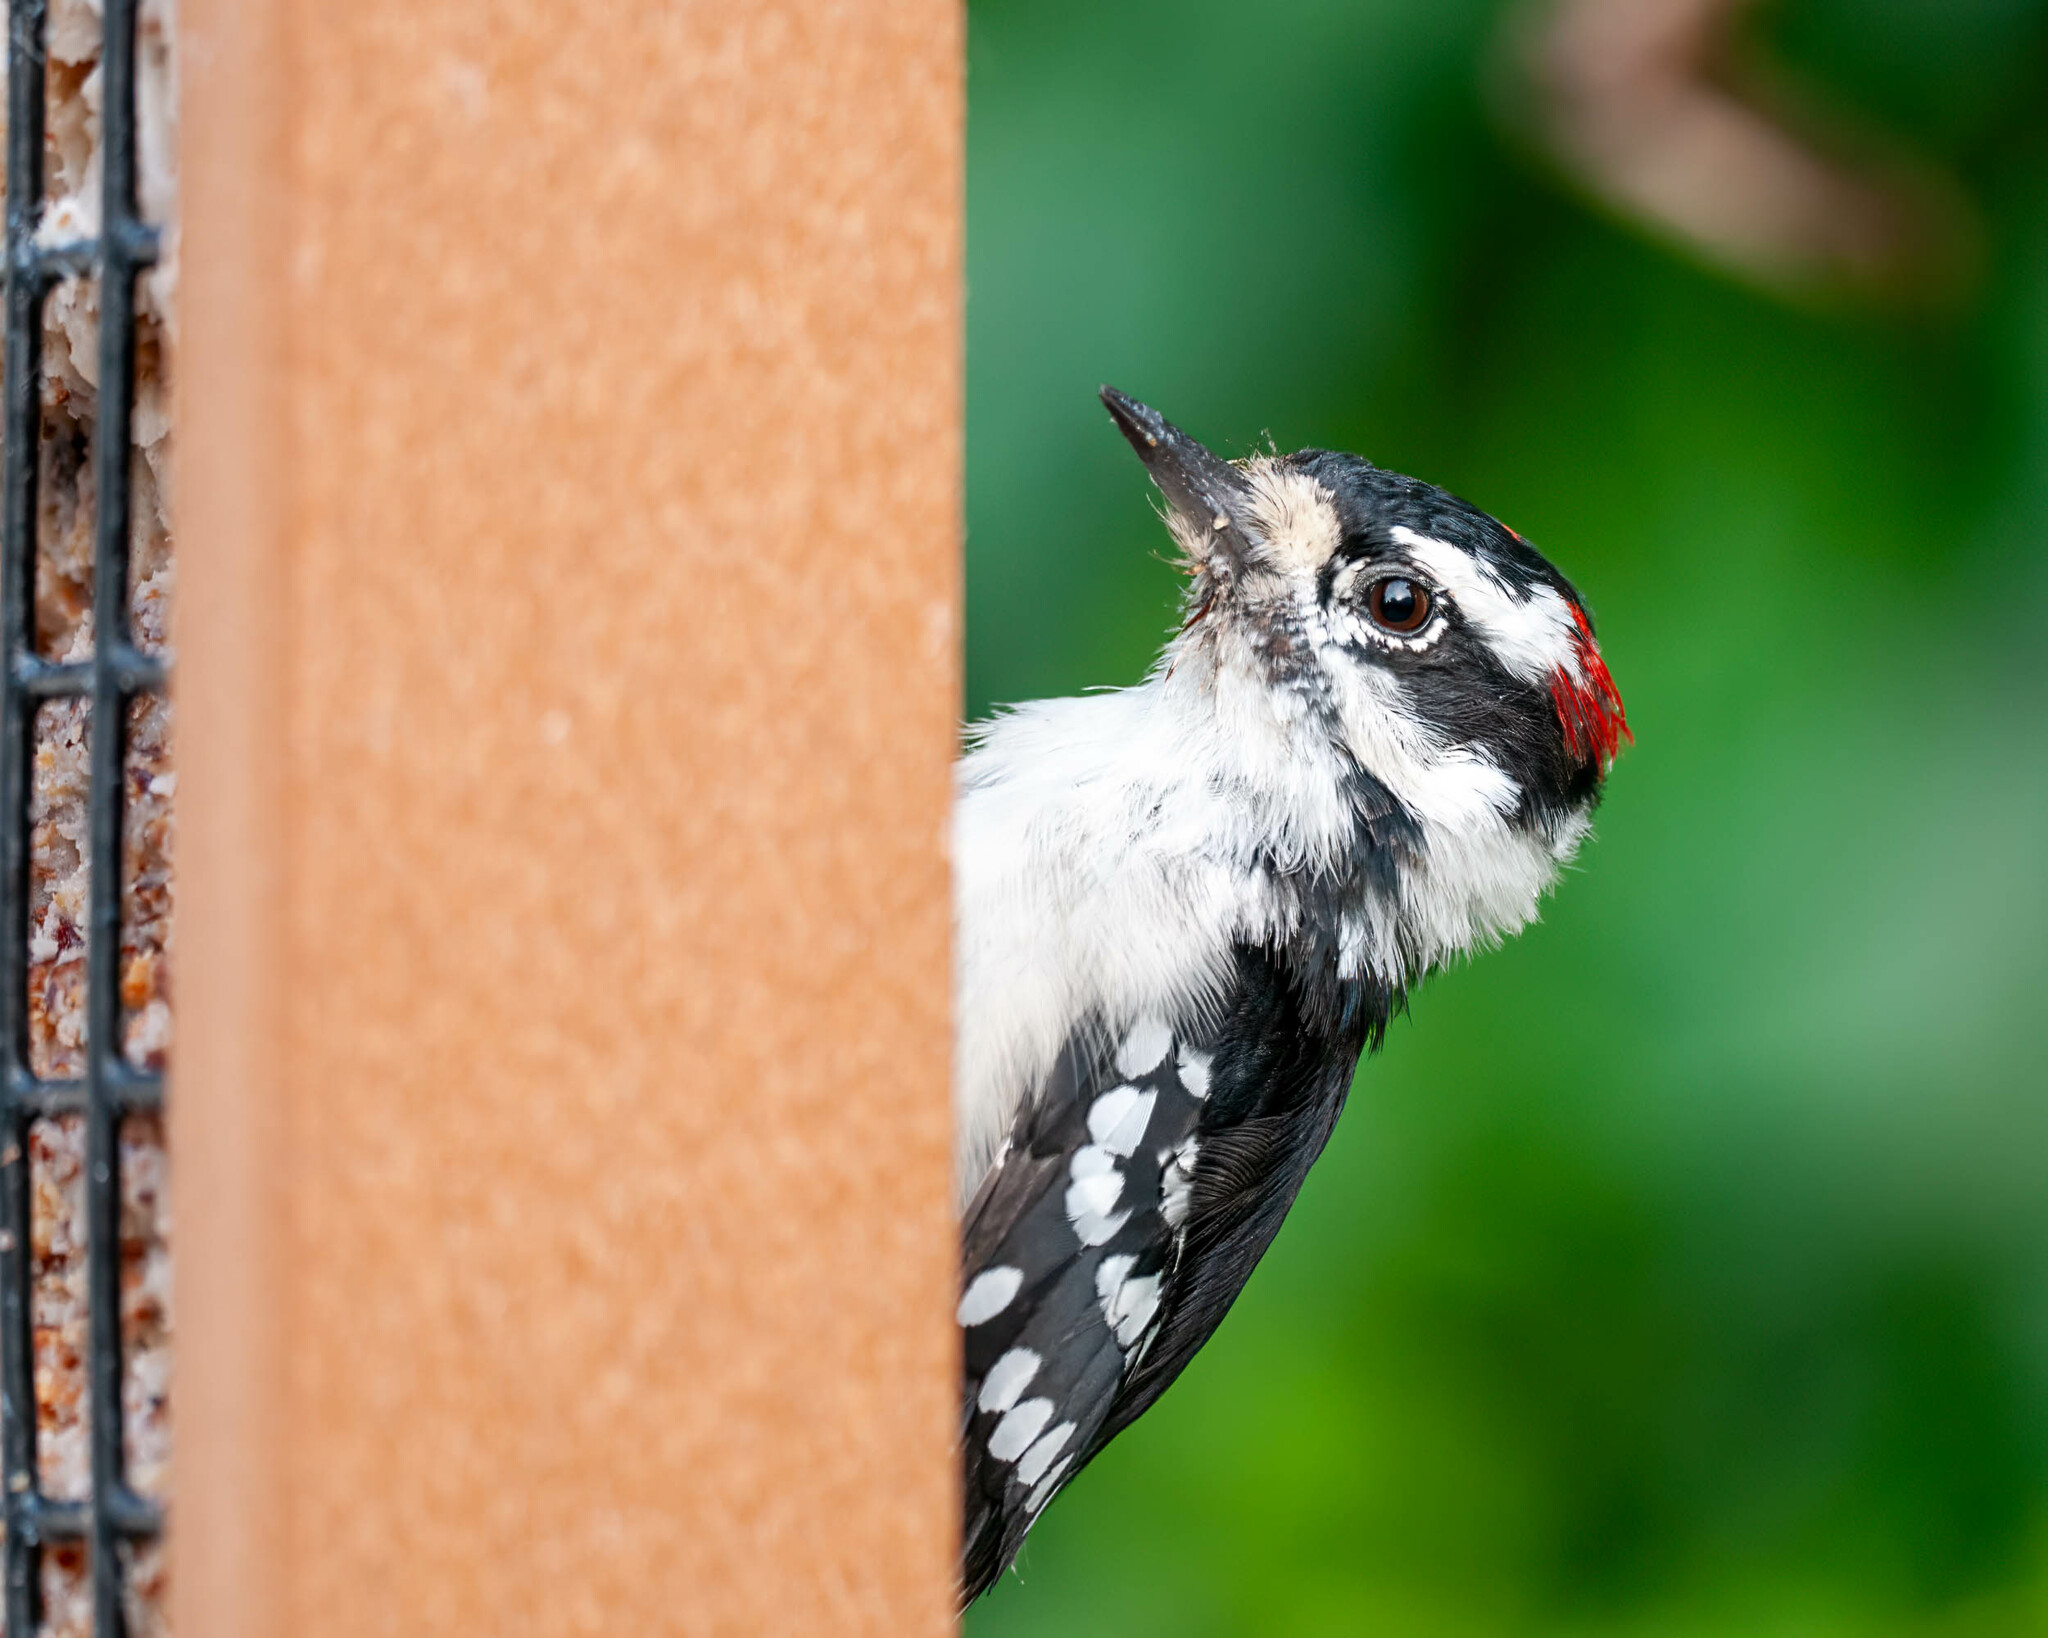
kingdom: Animalia
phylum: Chordata
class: Aves
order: Piciformes
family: Picidae
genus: Dryobates
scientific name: Dryobates pubescens
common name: Downy woodpecker
